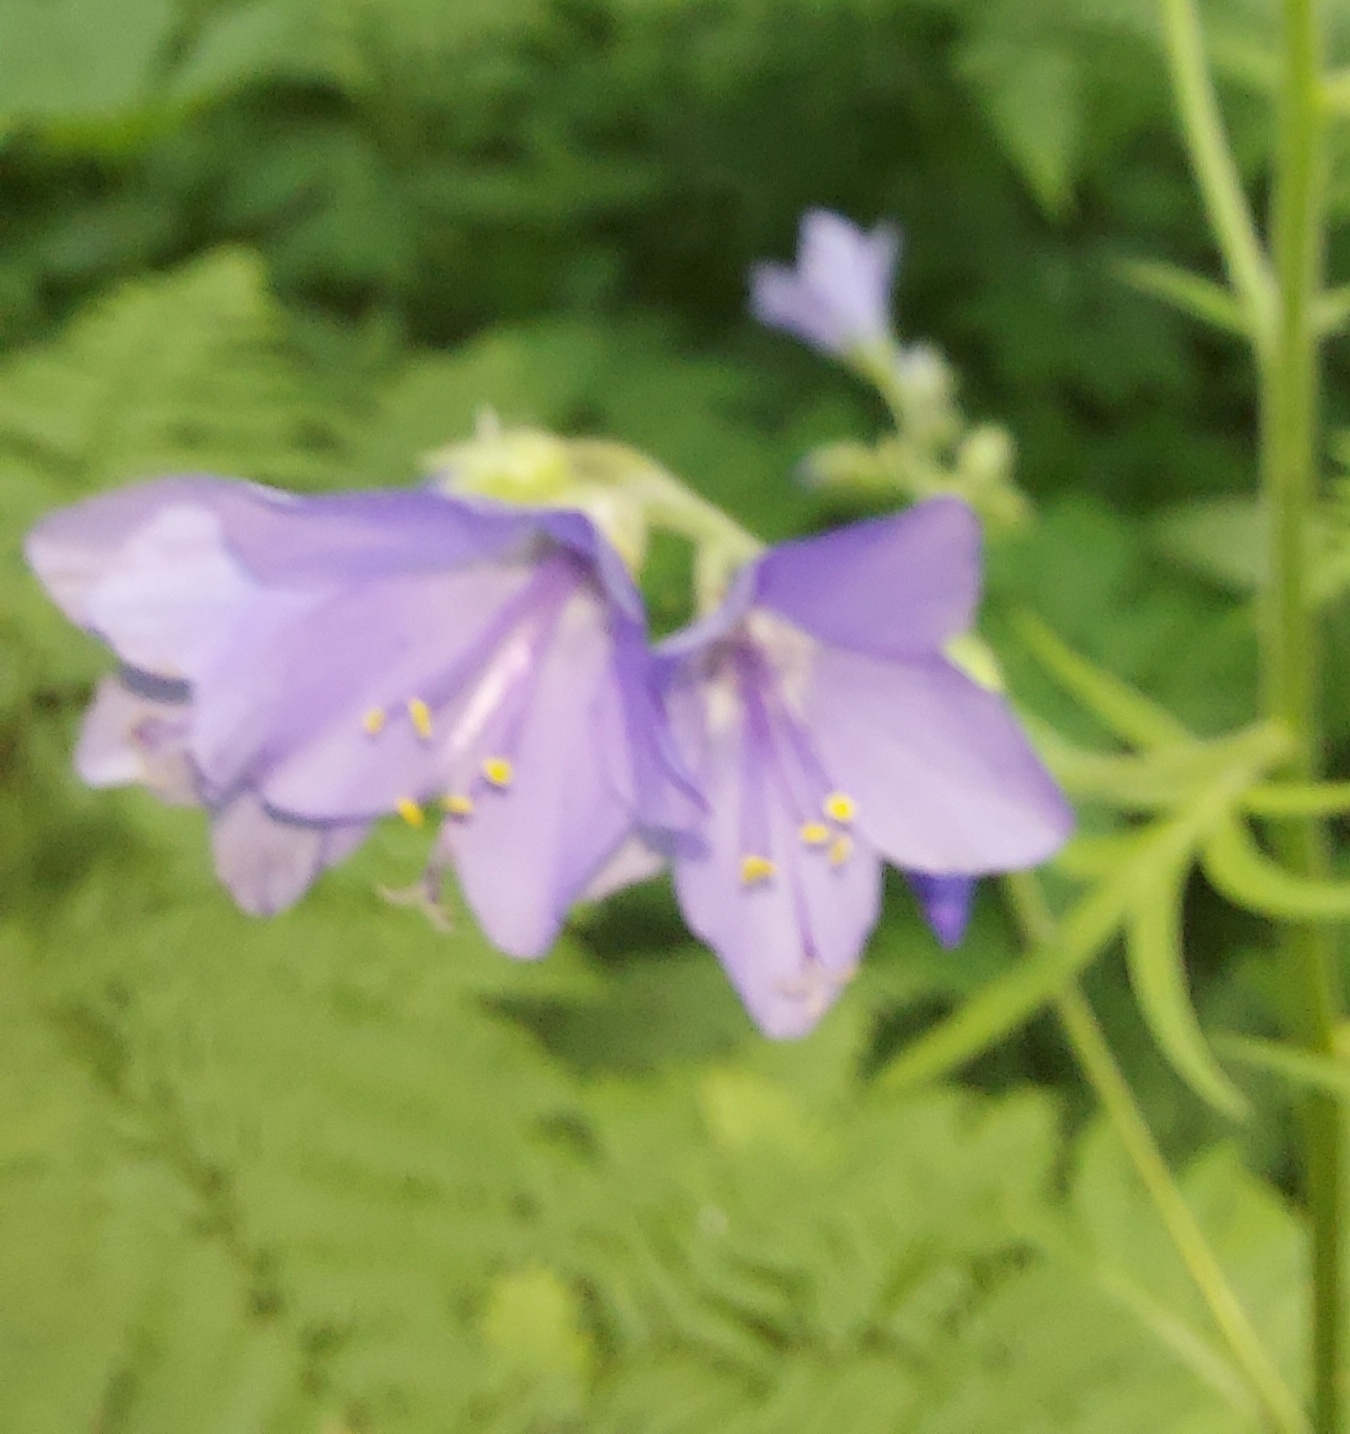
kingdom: Plantae
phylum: Tracheophyta
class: Magnoliopsida
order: Ericales
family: Polemoniaceae
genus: Polemonium
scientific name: Polemonium caeruleum
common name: Jacob's-ladder
